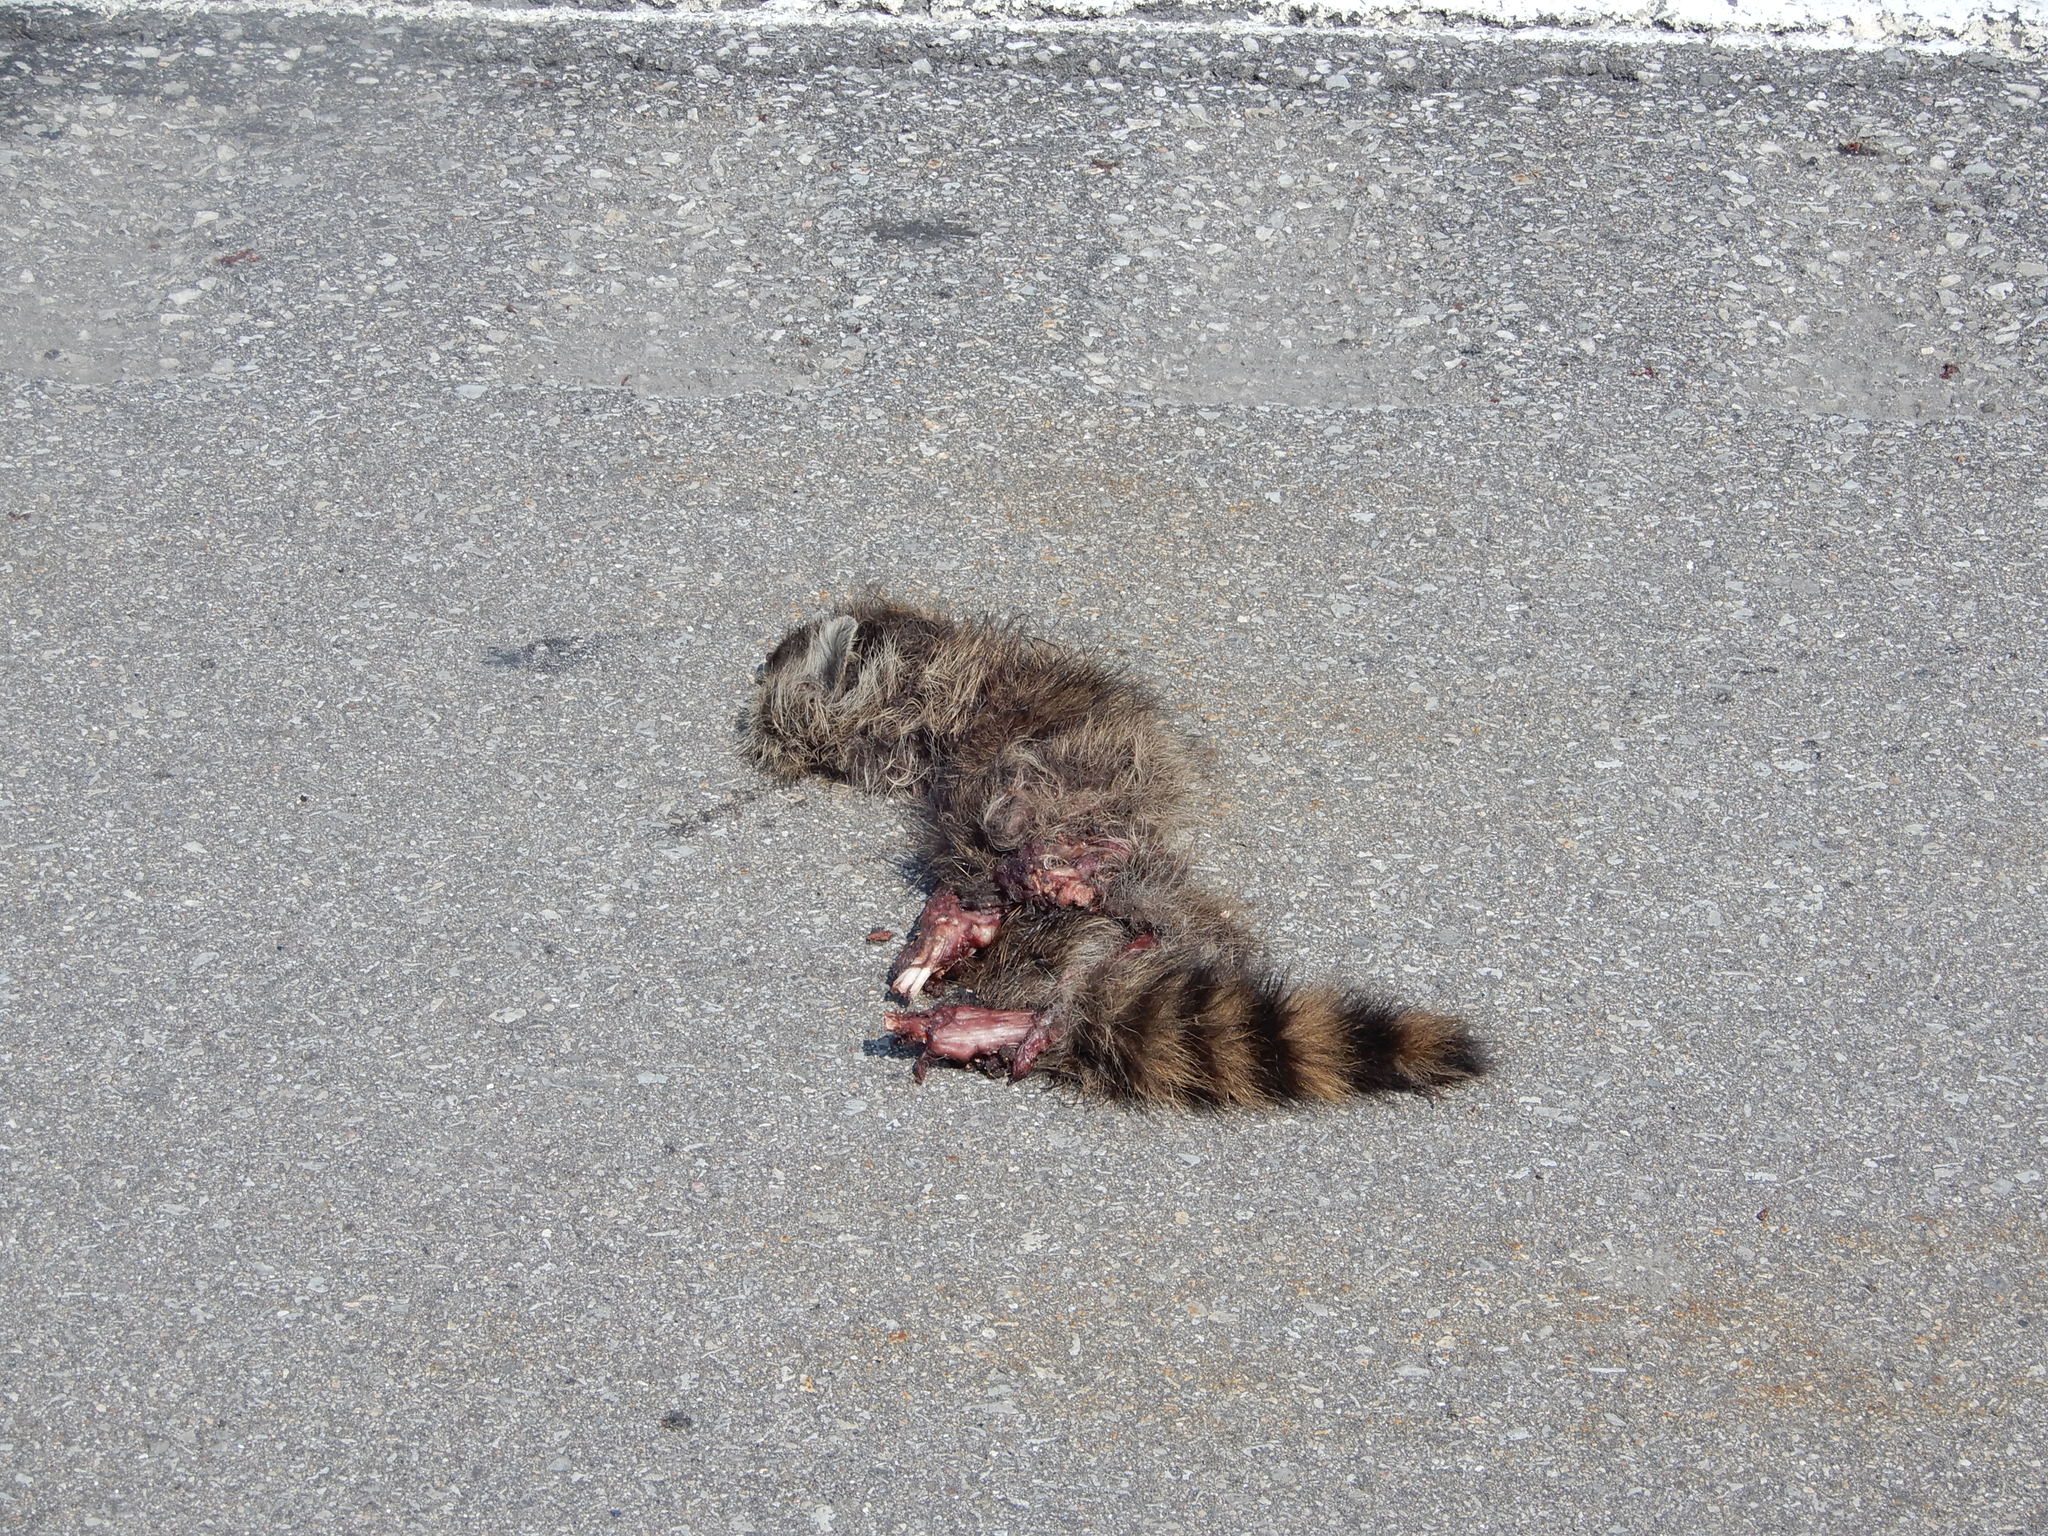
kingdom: Animalia
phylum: Chordata
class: Mammalia
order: Carnivora
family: Procyonidae
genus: Procyon
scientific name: Procyon lotor
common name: Raccoon
